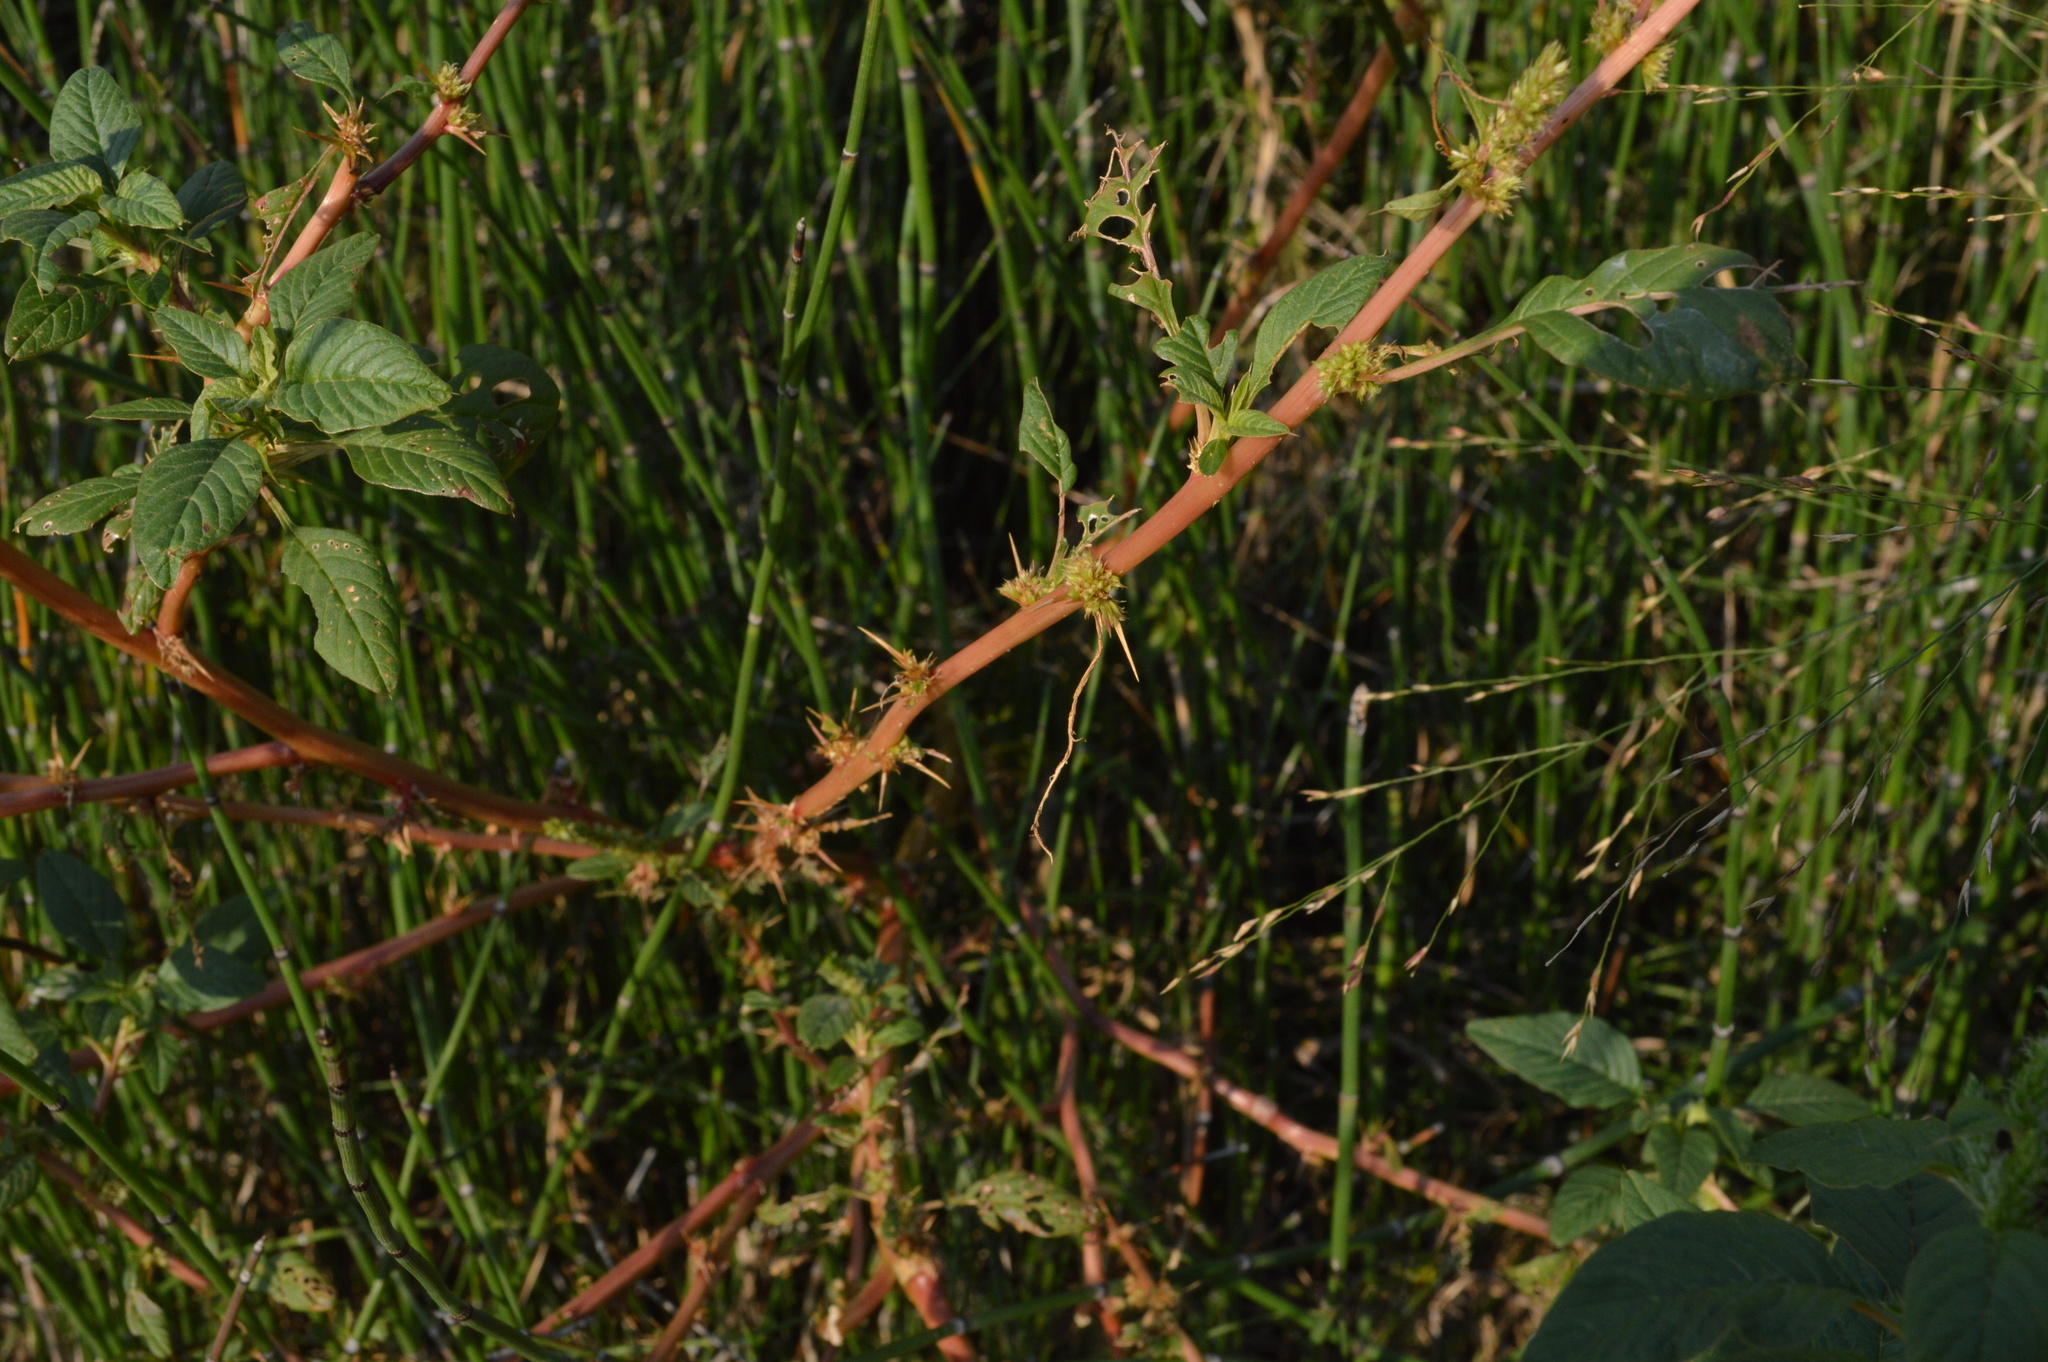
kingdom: Plantae
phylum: Tracheophyta
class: Magnoliopsida
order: Caryophyllales
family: Amaranthaceae
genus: Amaranthus
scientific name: Amaranthus spinosus
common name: Spiny amaranth
